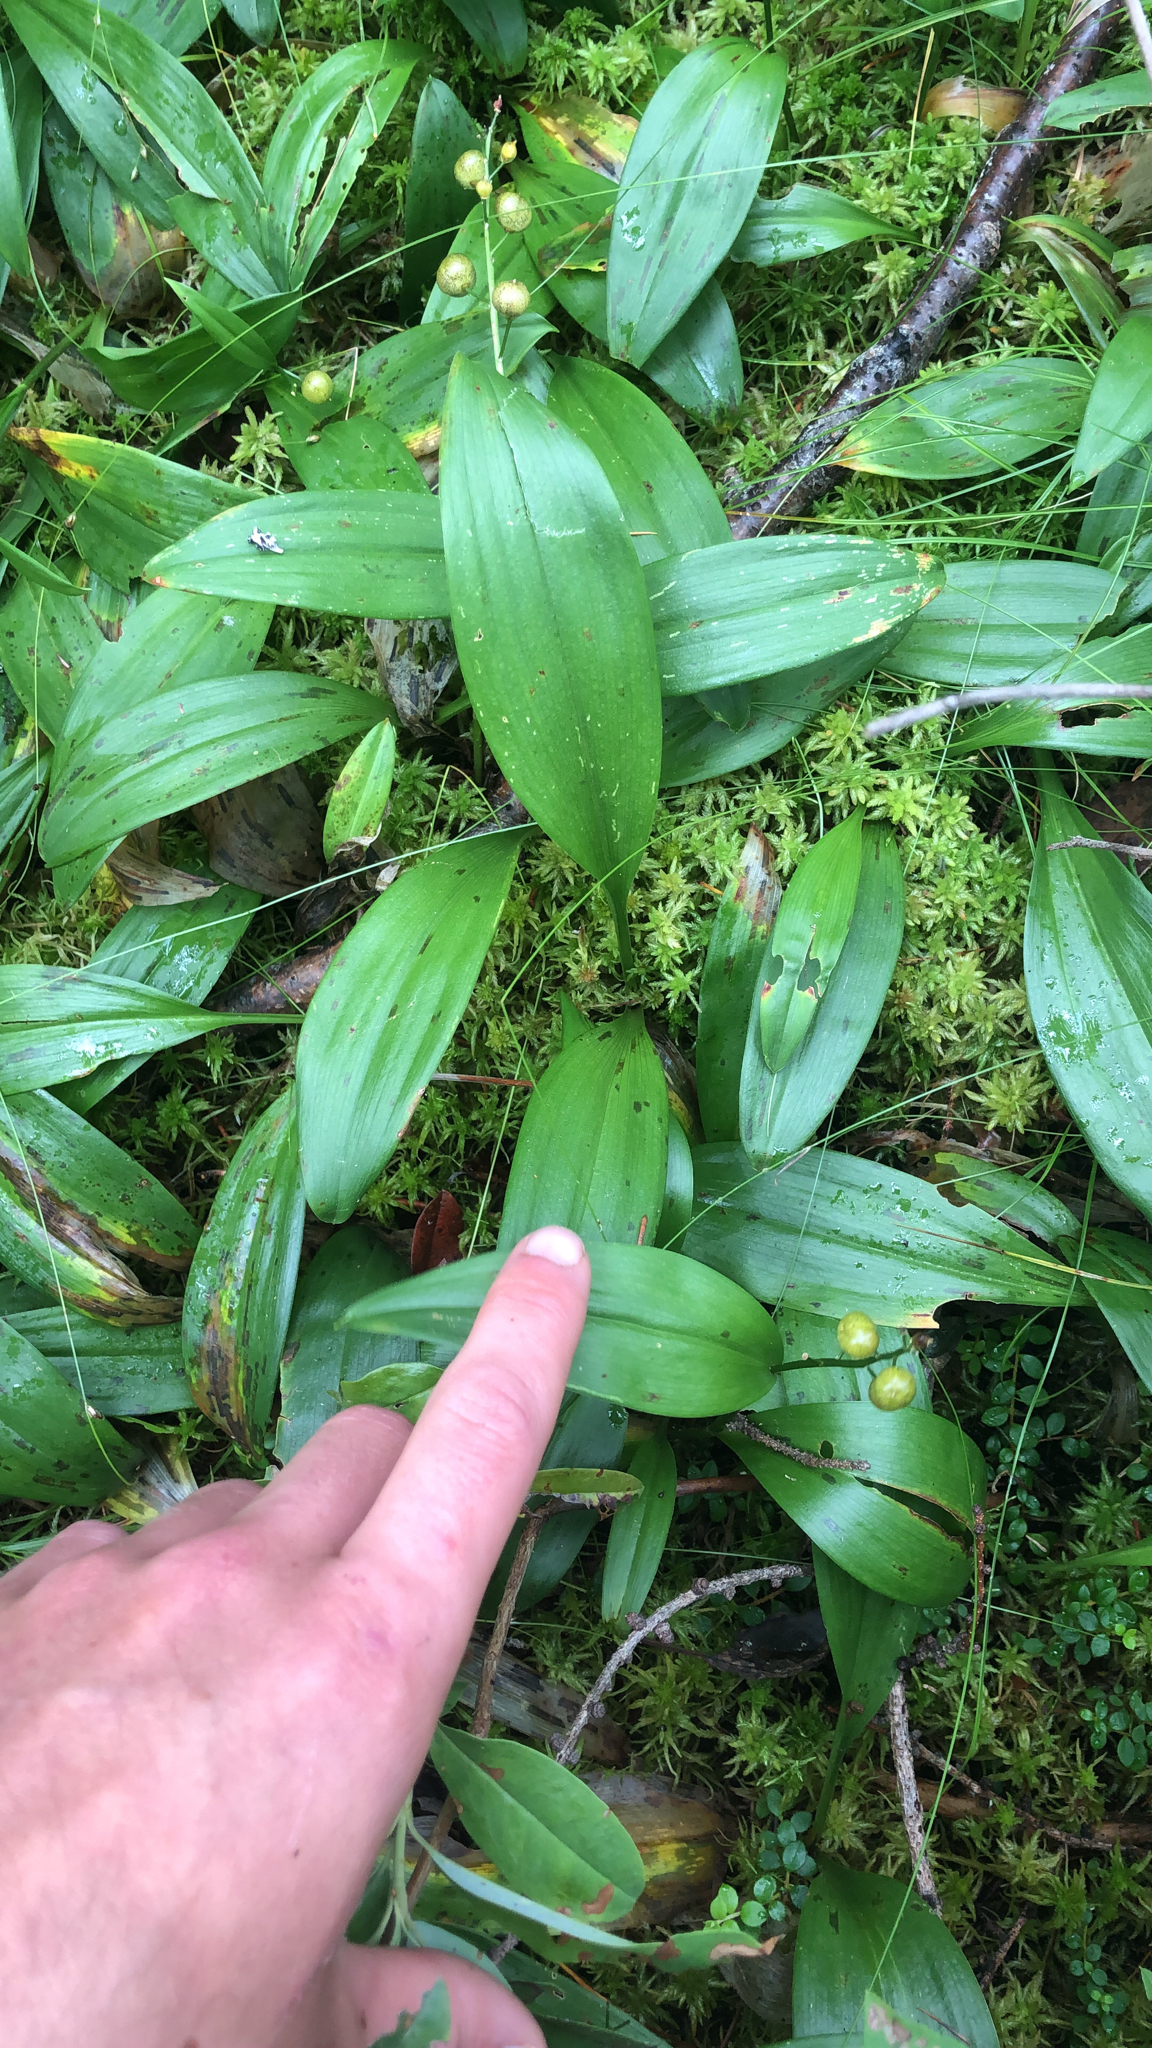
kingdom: Plantae
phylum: Tracheophyta
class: Liliopsida
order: Asparagales
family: Asparagaceae
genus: Maianthemum
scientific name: Maianthemum trifolium
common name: Swamp false solomon's seal
